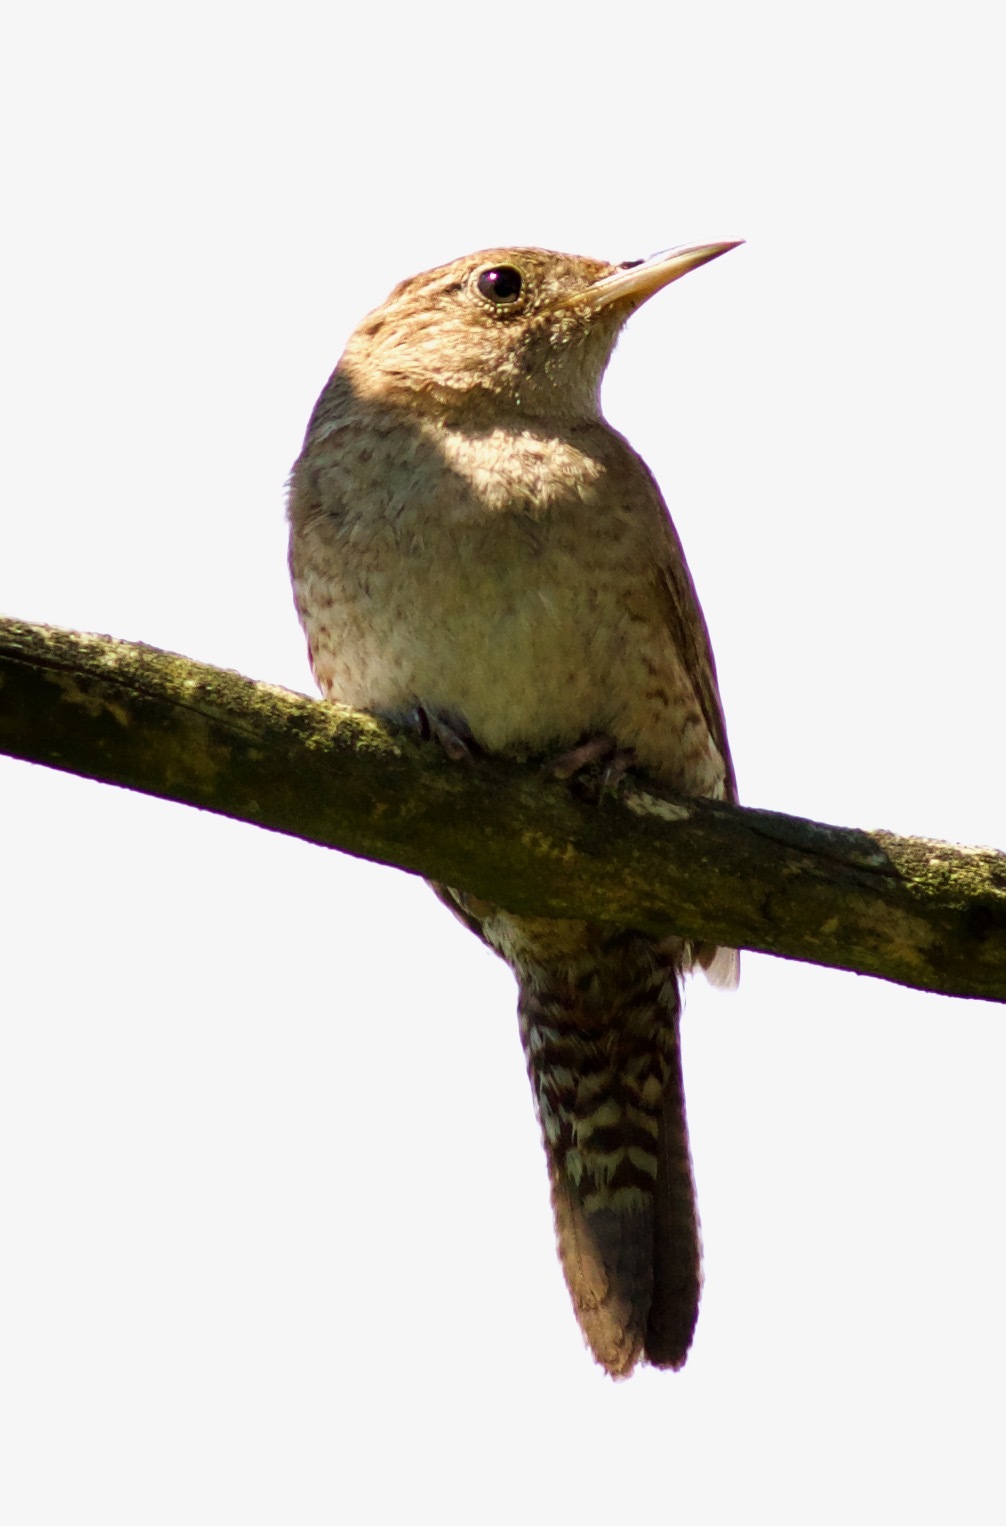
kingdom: Animalia
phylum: Chordata
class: Aves
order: Passeriformes
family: Troglodytidae
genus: Troglodytes
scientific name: Troglodytes aedon
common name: House wren
